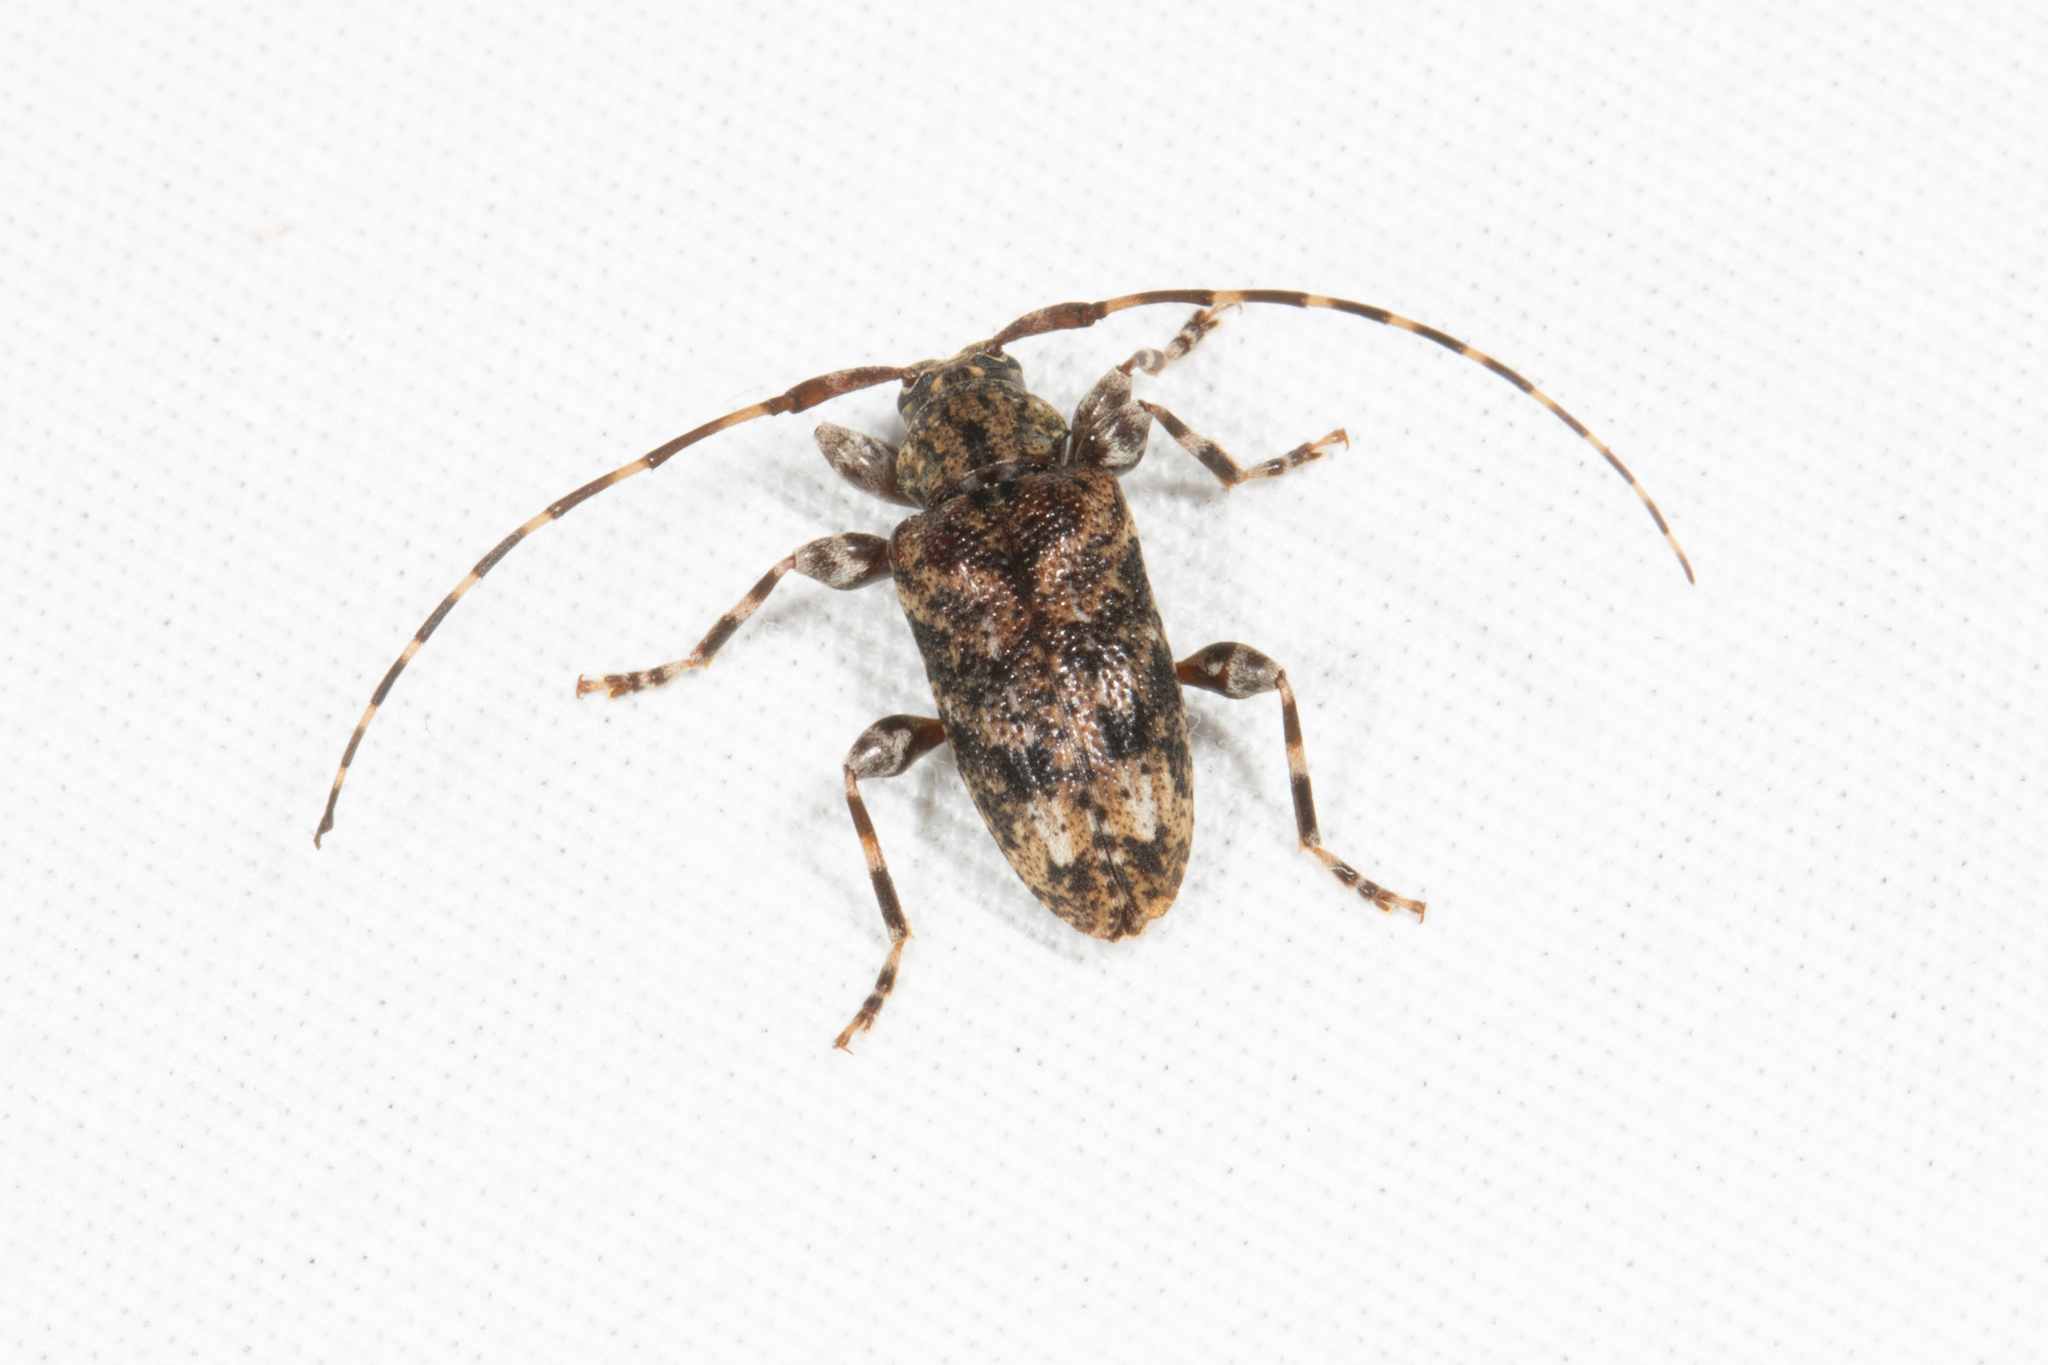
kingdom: Animalia
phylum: Arthropoda
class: Insecta
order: Coleoptera
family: Cerambycidae
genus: Astyleiopus
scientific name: Astyleiopus variegatus
